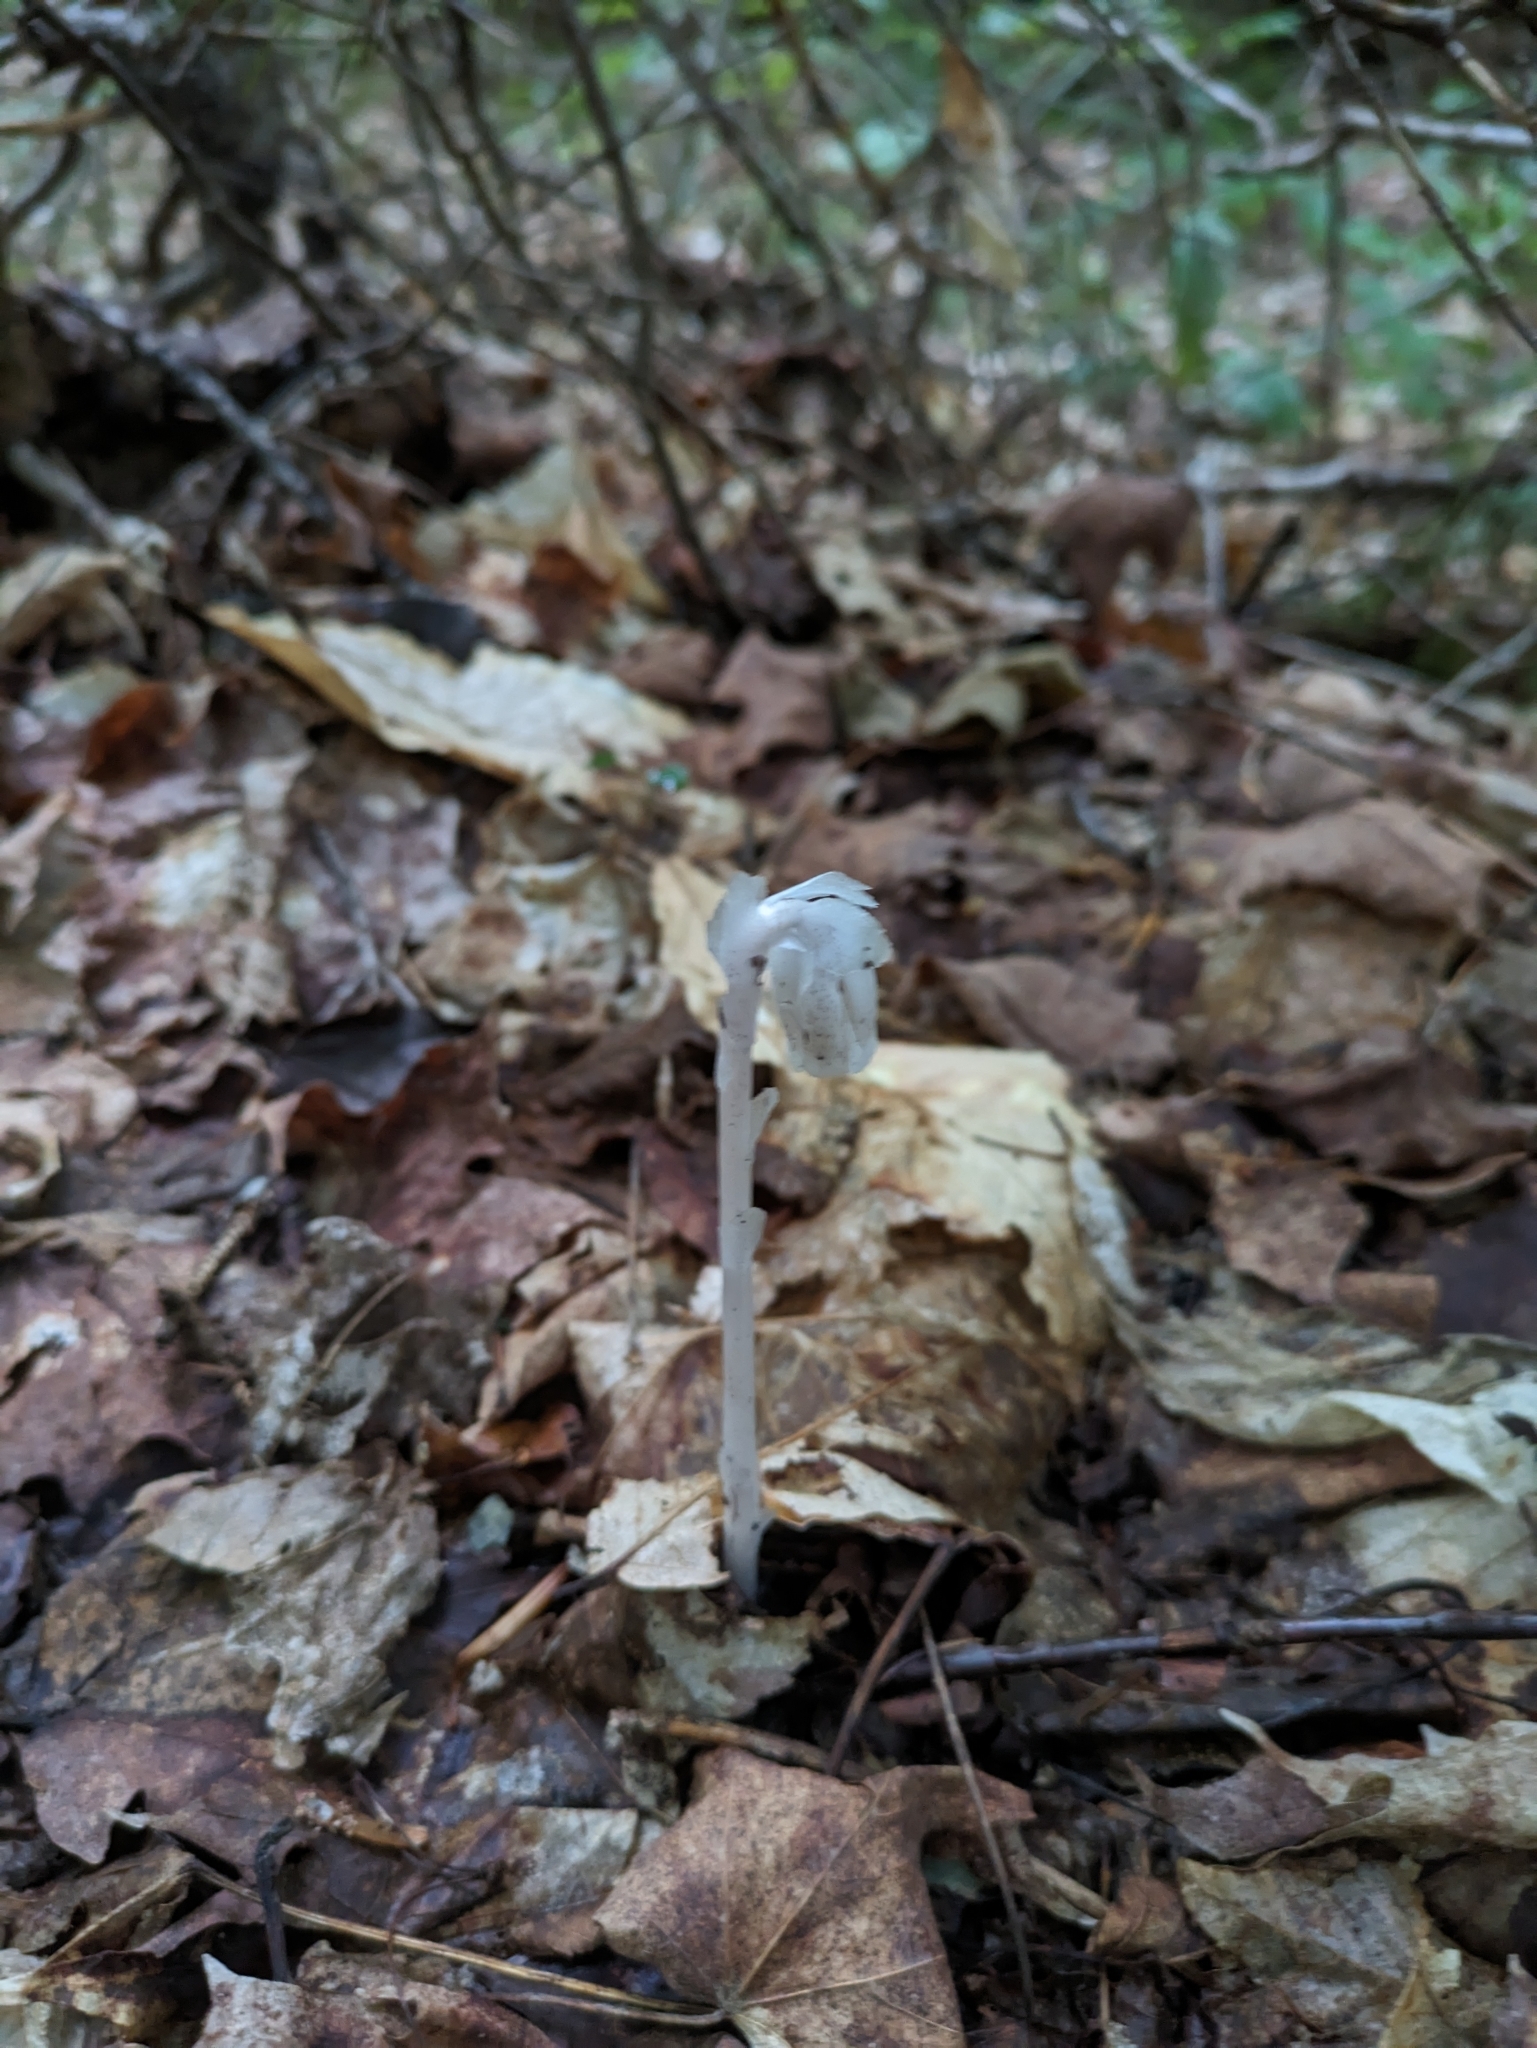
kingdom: Plantae
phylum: Tracheophyta
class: Magnoliopsida
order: Ericales
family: Ericaceae
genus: Monotropa
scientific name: Monotropa uniflora
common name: Convulsion root
